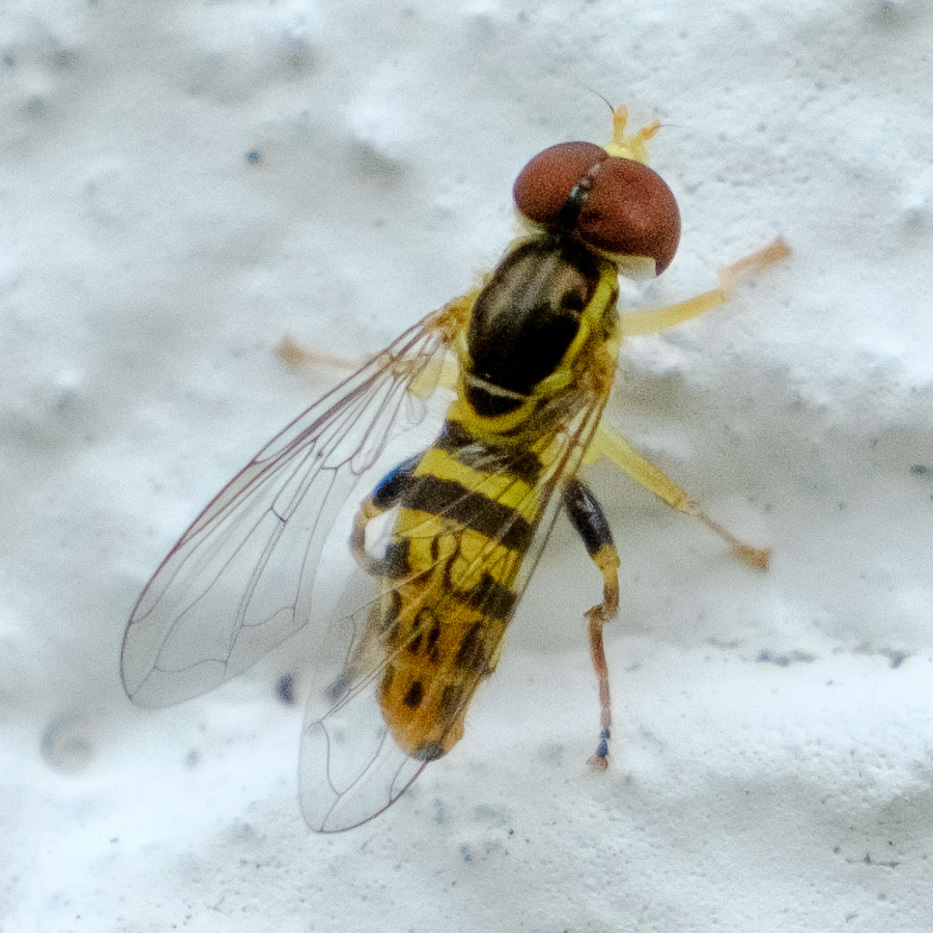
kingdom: Animalia
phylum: Arthropoda
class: Insecta
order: Diptera
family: Syrphidae
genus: Toxomerus
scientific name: Toxomerus geminatus
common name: Eastern calligrapher
